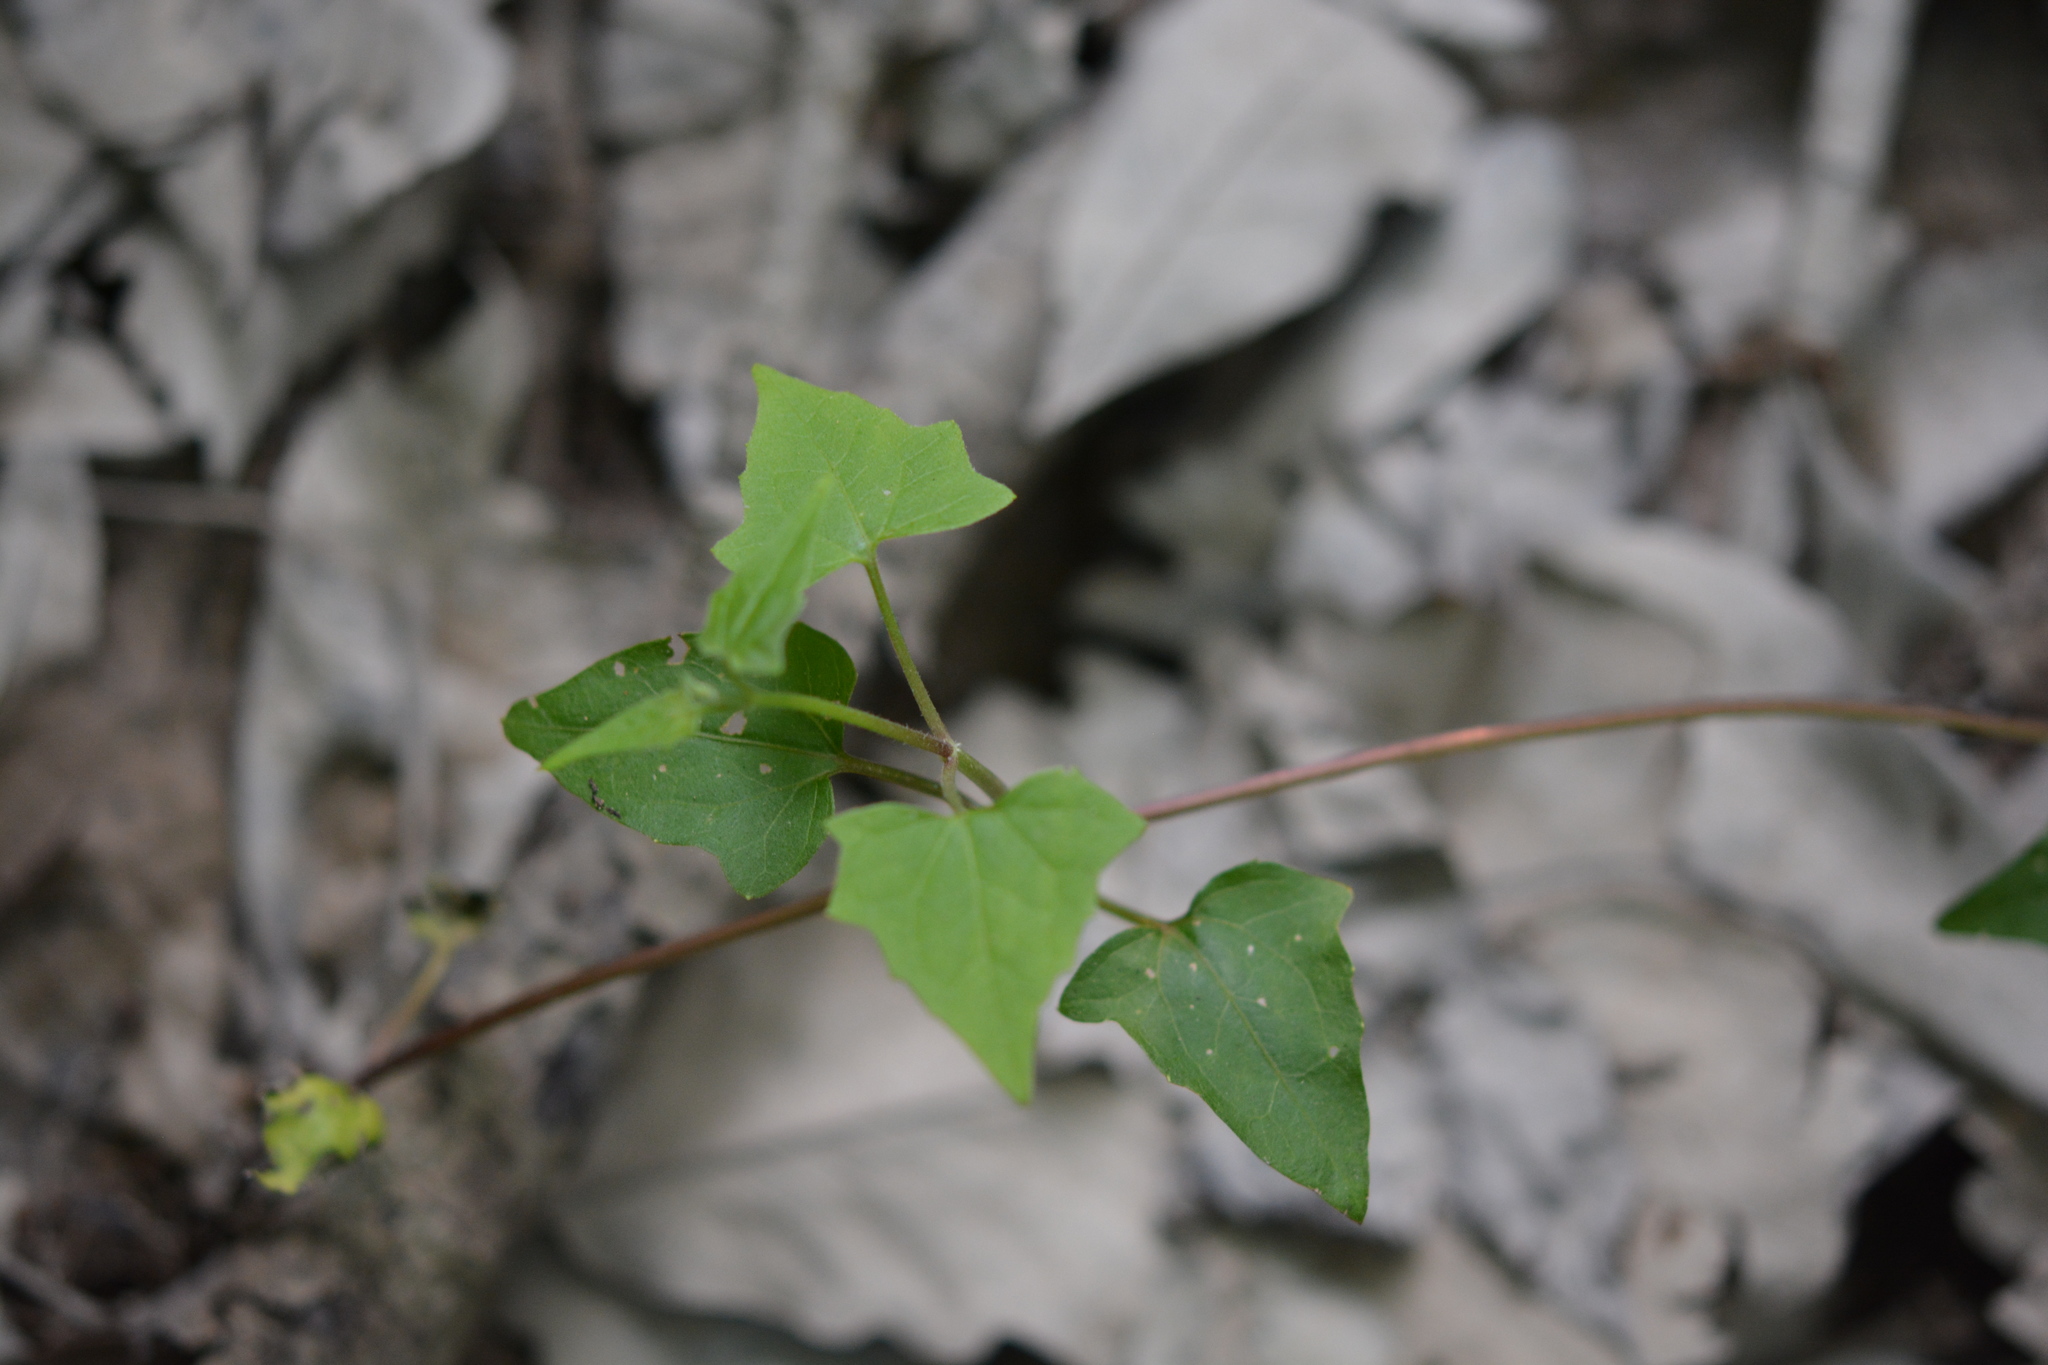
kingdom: Plantae
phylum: Tracheophyta
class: Magnoliopsida
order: Asterales
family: Asteraceae
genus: Mikania
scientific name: Mikania scandens
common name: Climbing hempvine
